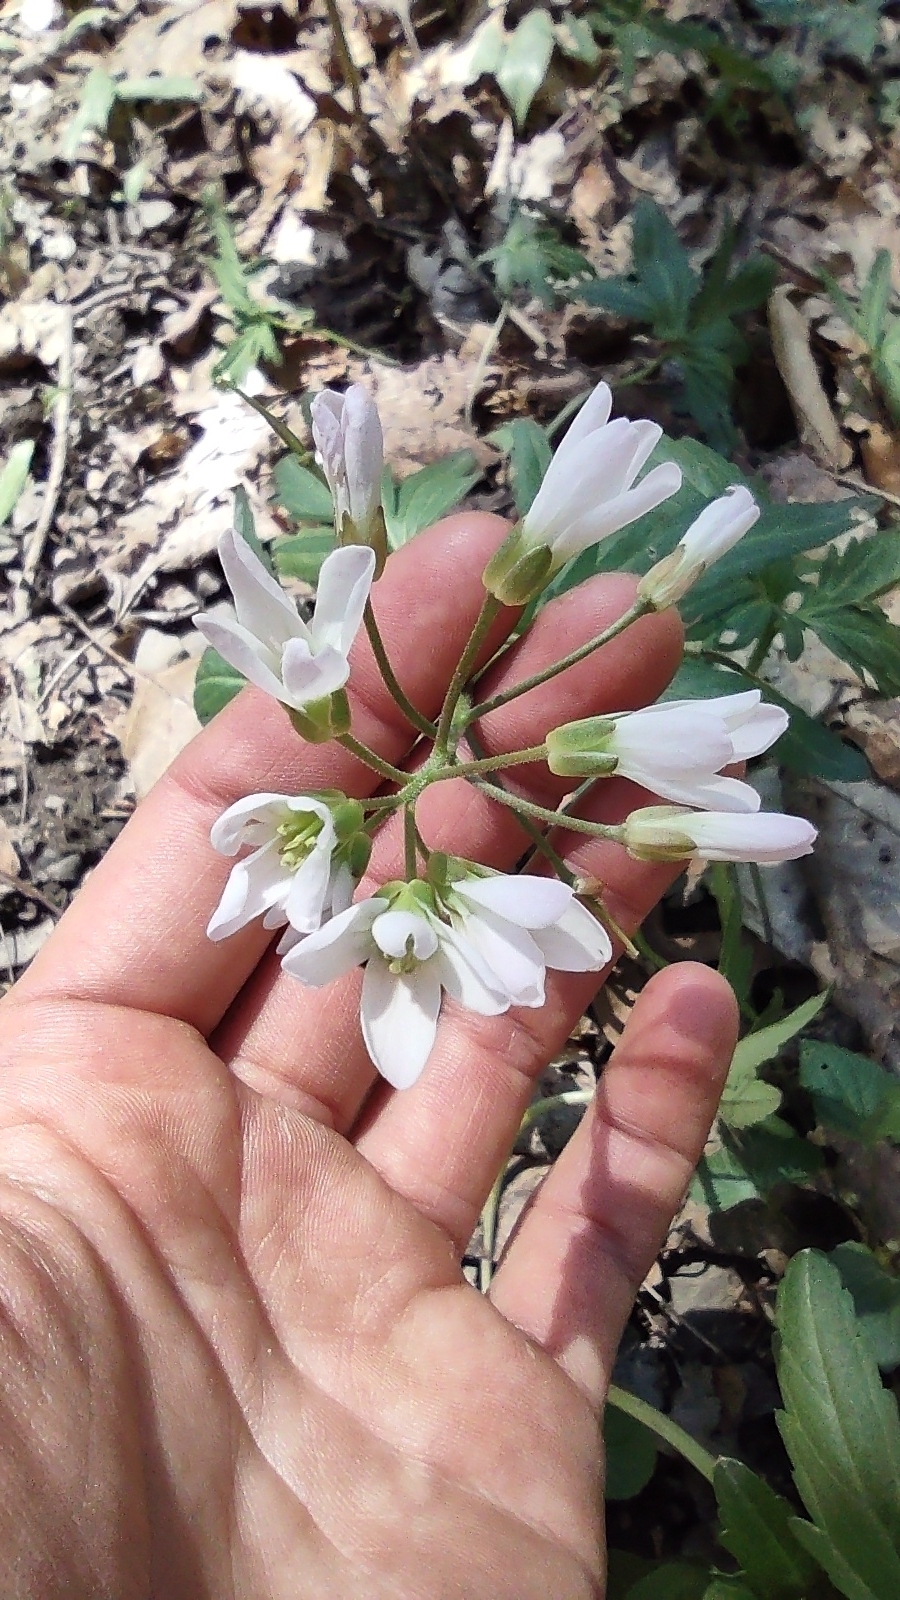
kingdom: Plantae
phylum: Tracheophyta
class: Magnoliopsida
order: Brassicales
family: Brassicaceae
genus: Cardamine
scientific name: Cardamine concatenata
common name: Cut-leaf toothcup
